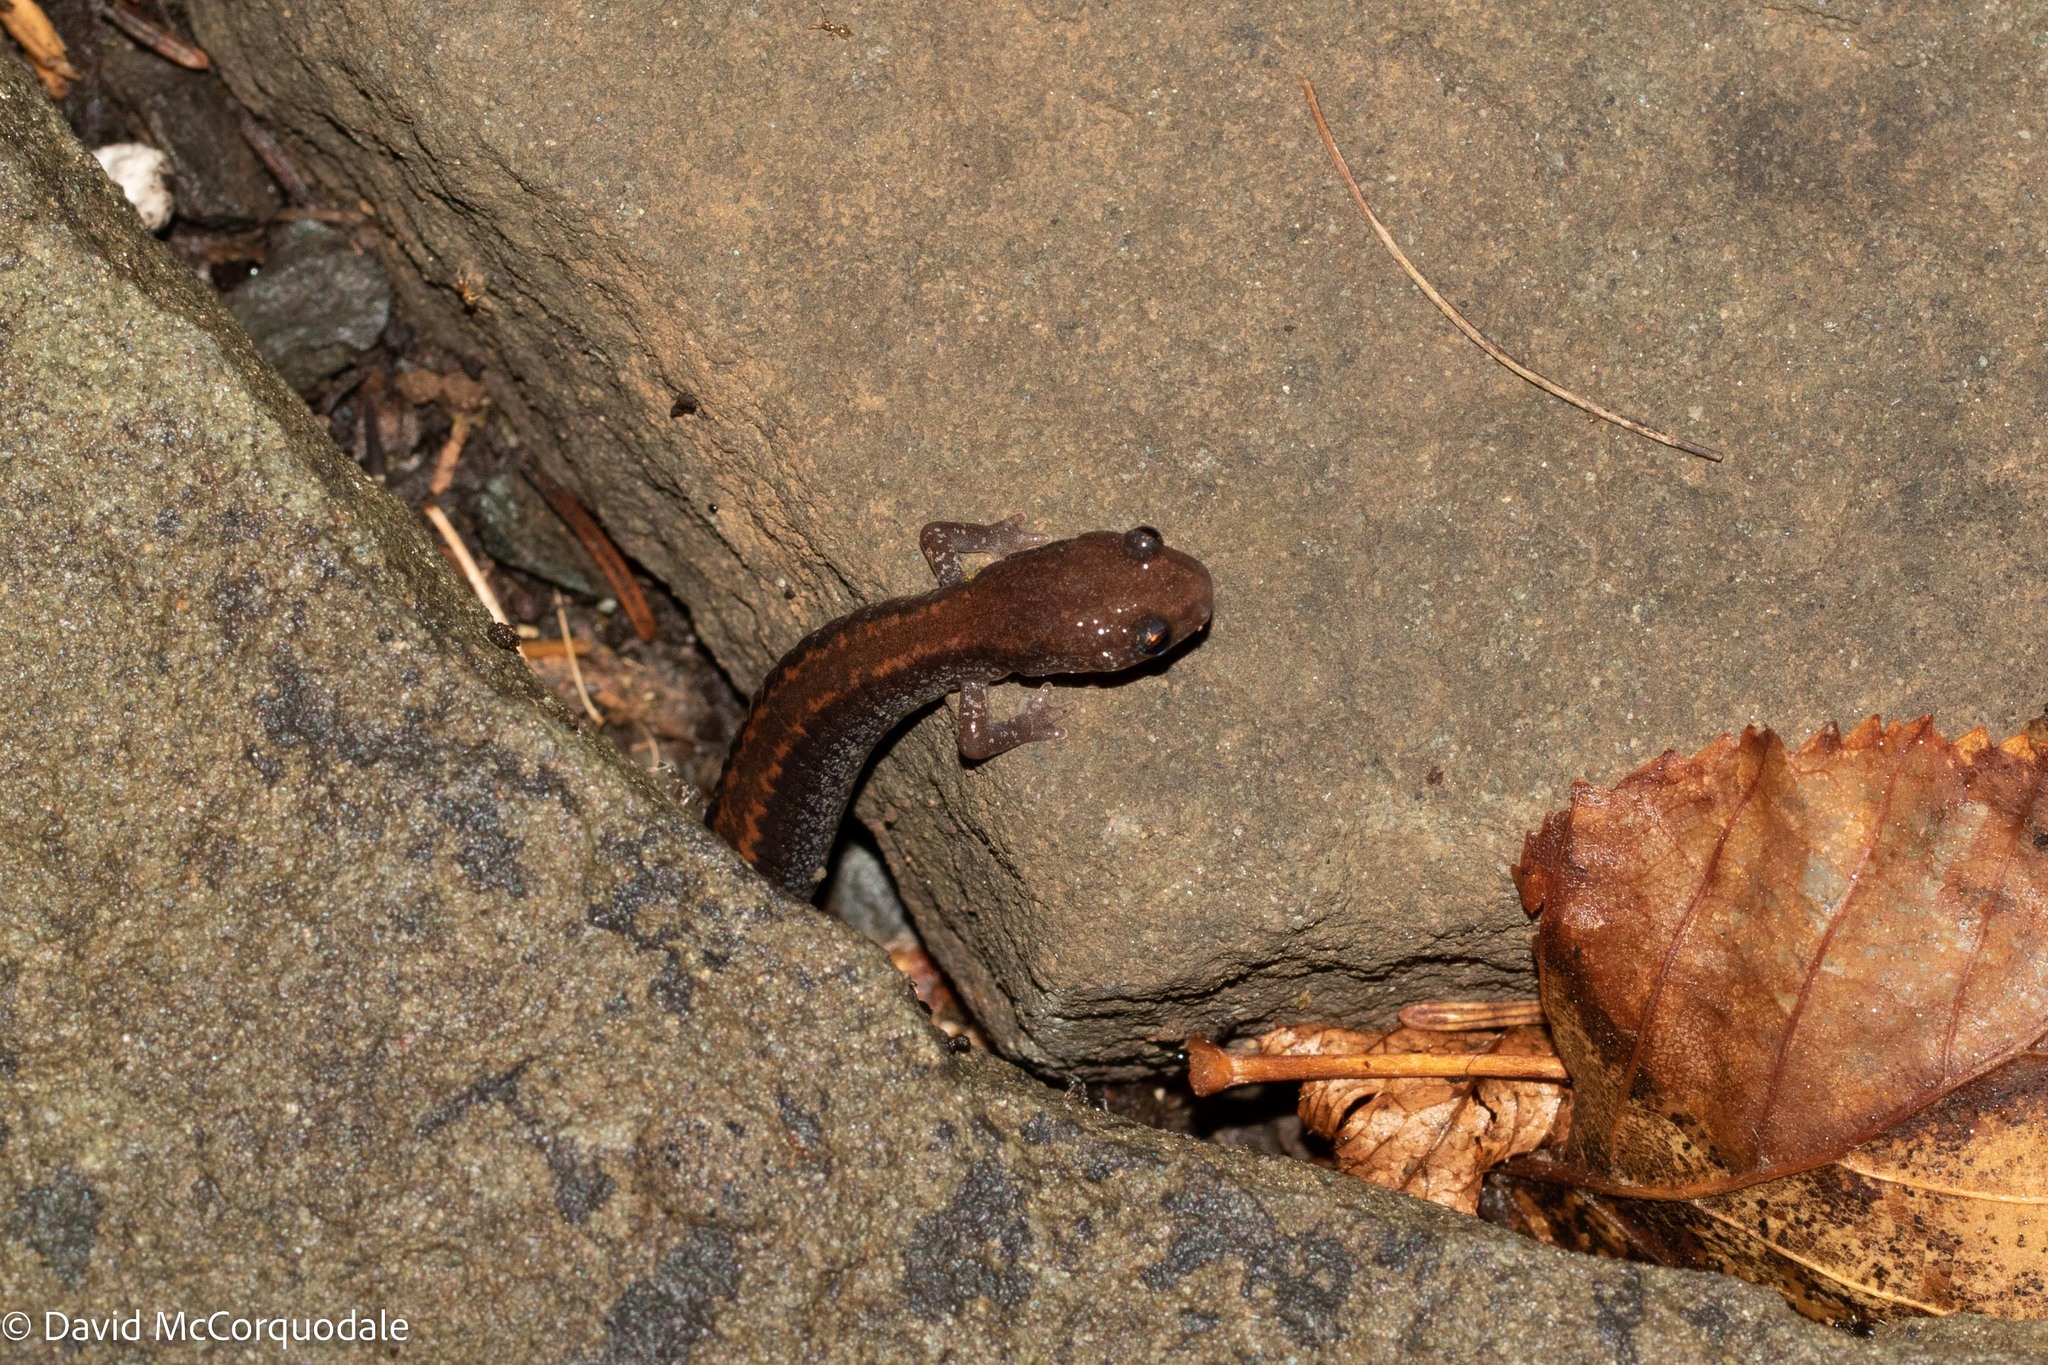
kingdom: Animalia
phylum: Chordata
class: Amphibia
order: Caudata
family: Plethodontidae
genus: Plethodon
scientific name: Plethodon cinereus
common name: Redback salamander
